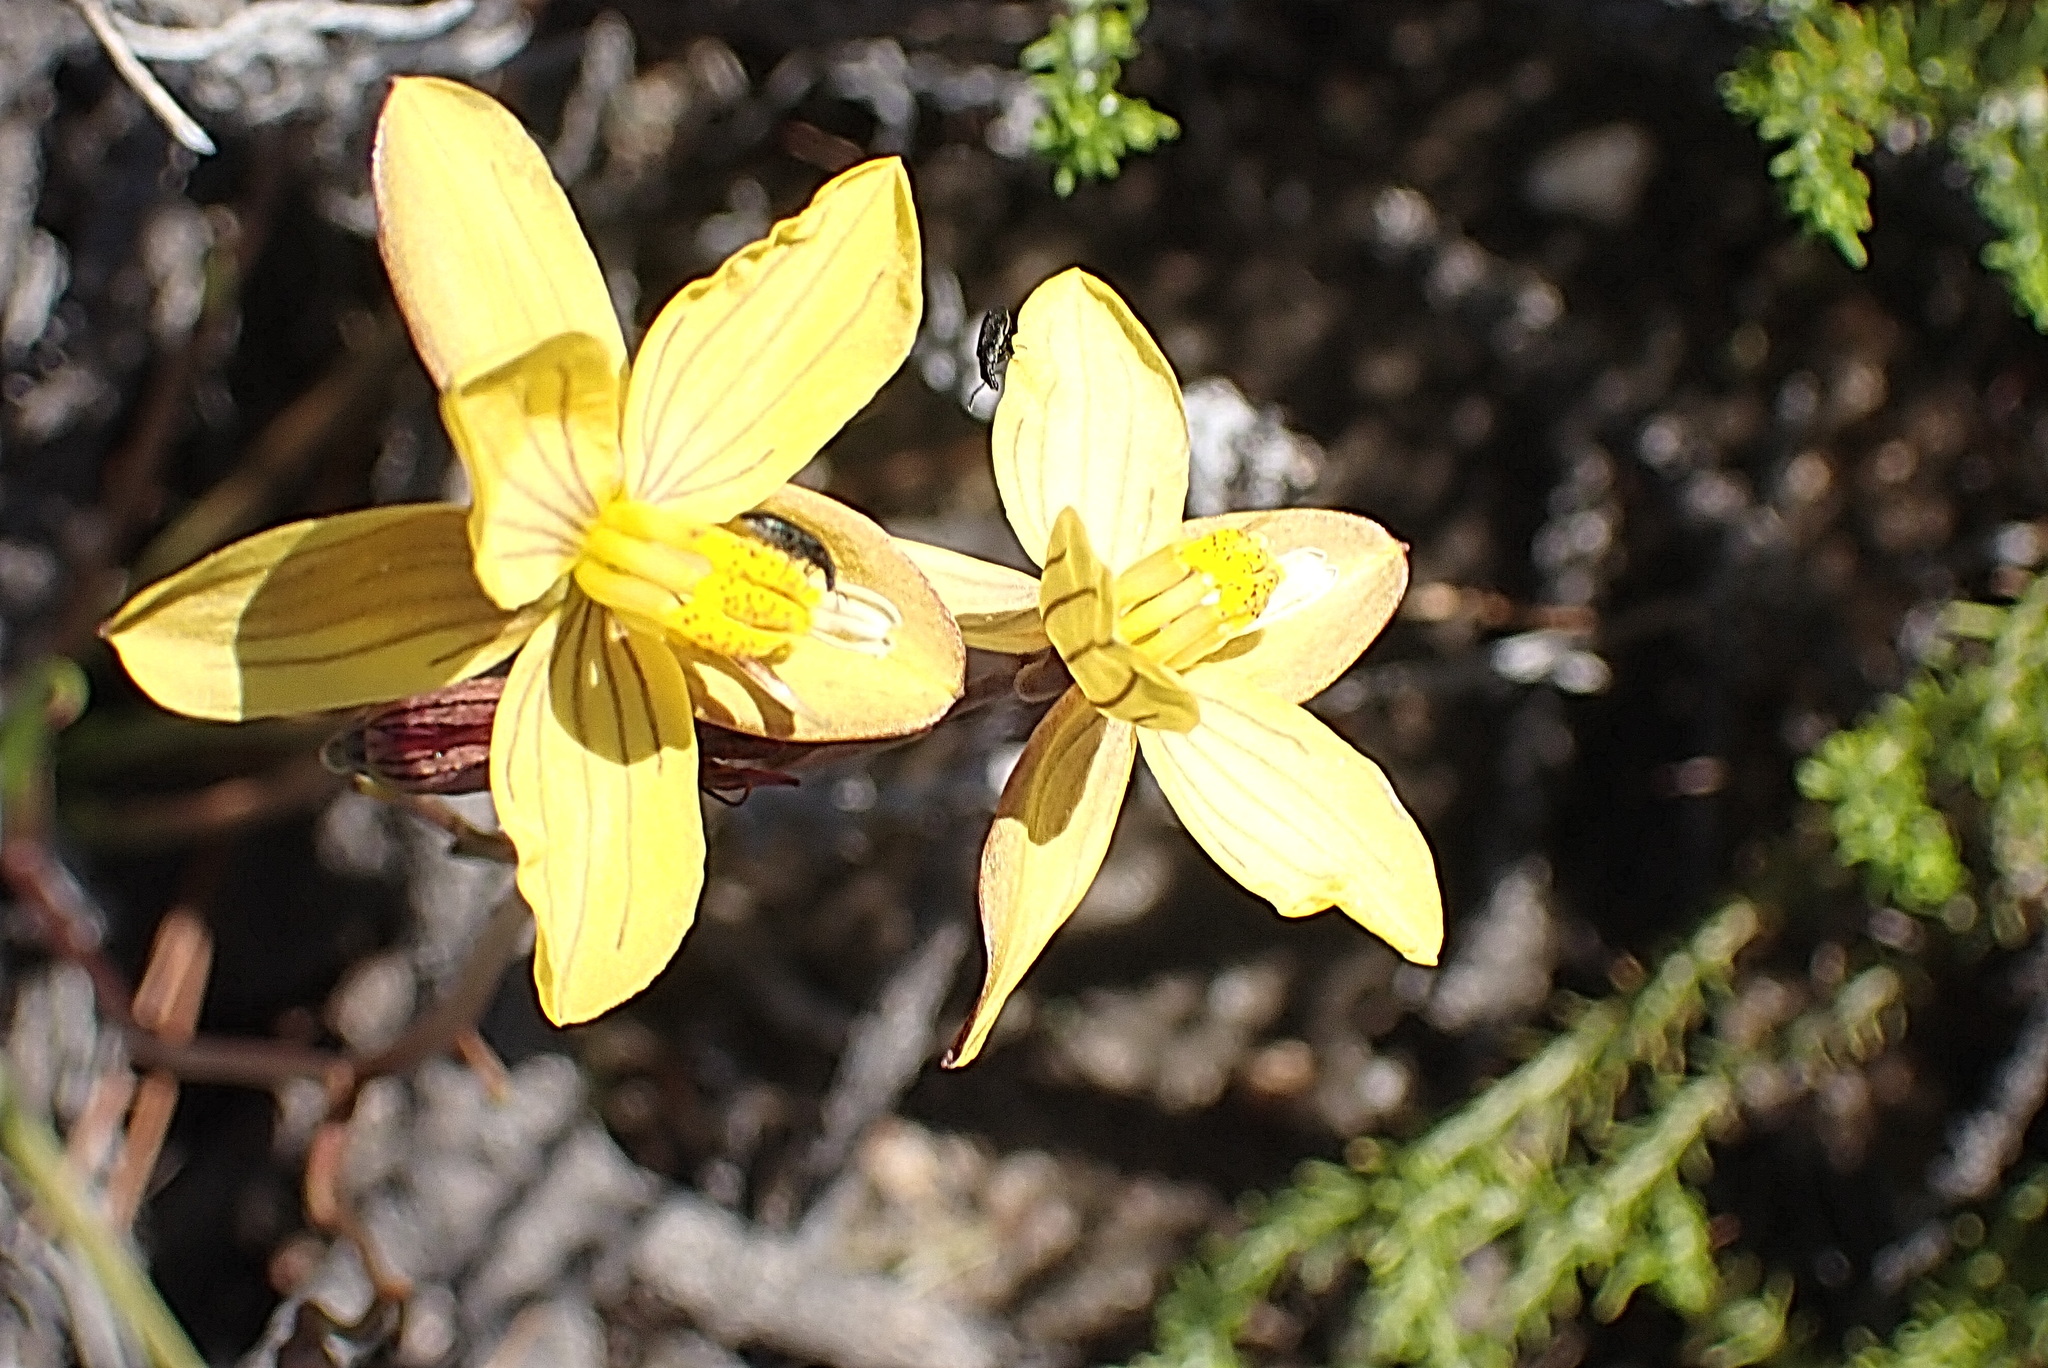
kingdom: Plantae
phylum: Tracheophyta
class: Liliopsida
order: Asparagales
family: Tecophilaeaceae
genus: Cyanella
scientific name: Cyanella lutea
